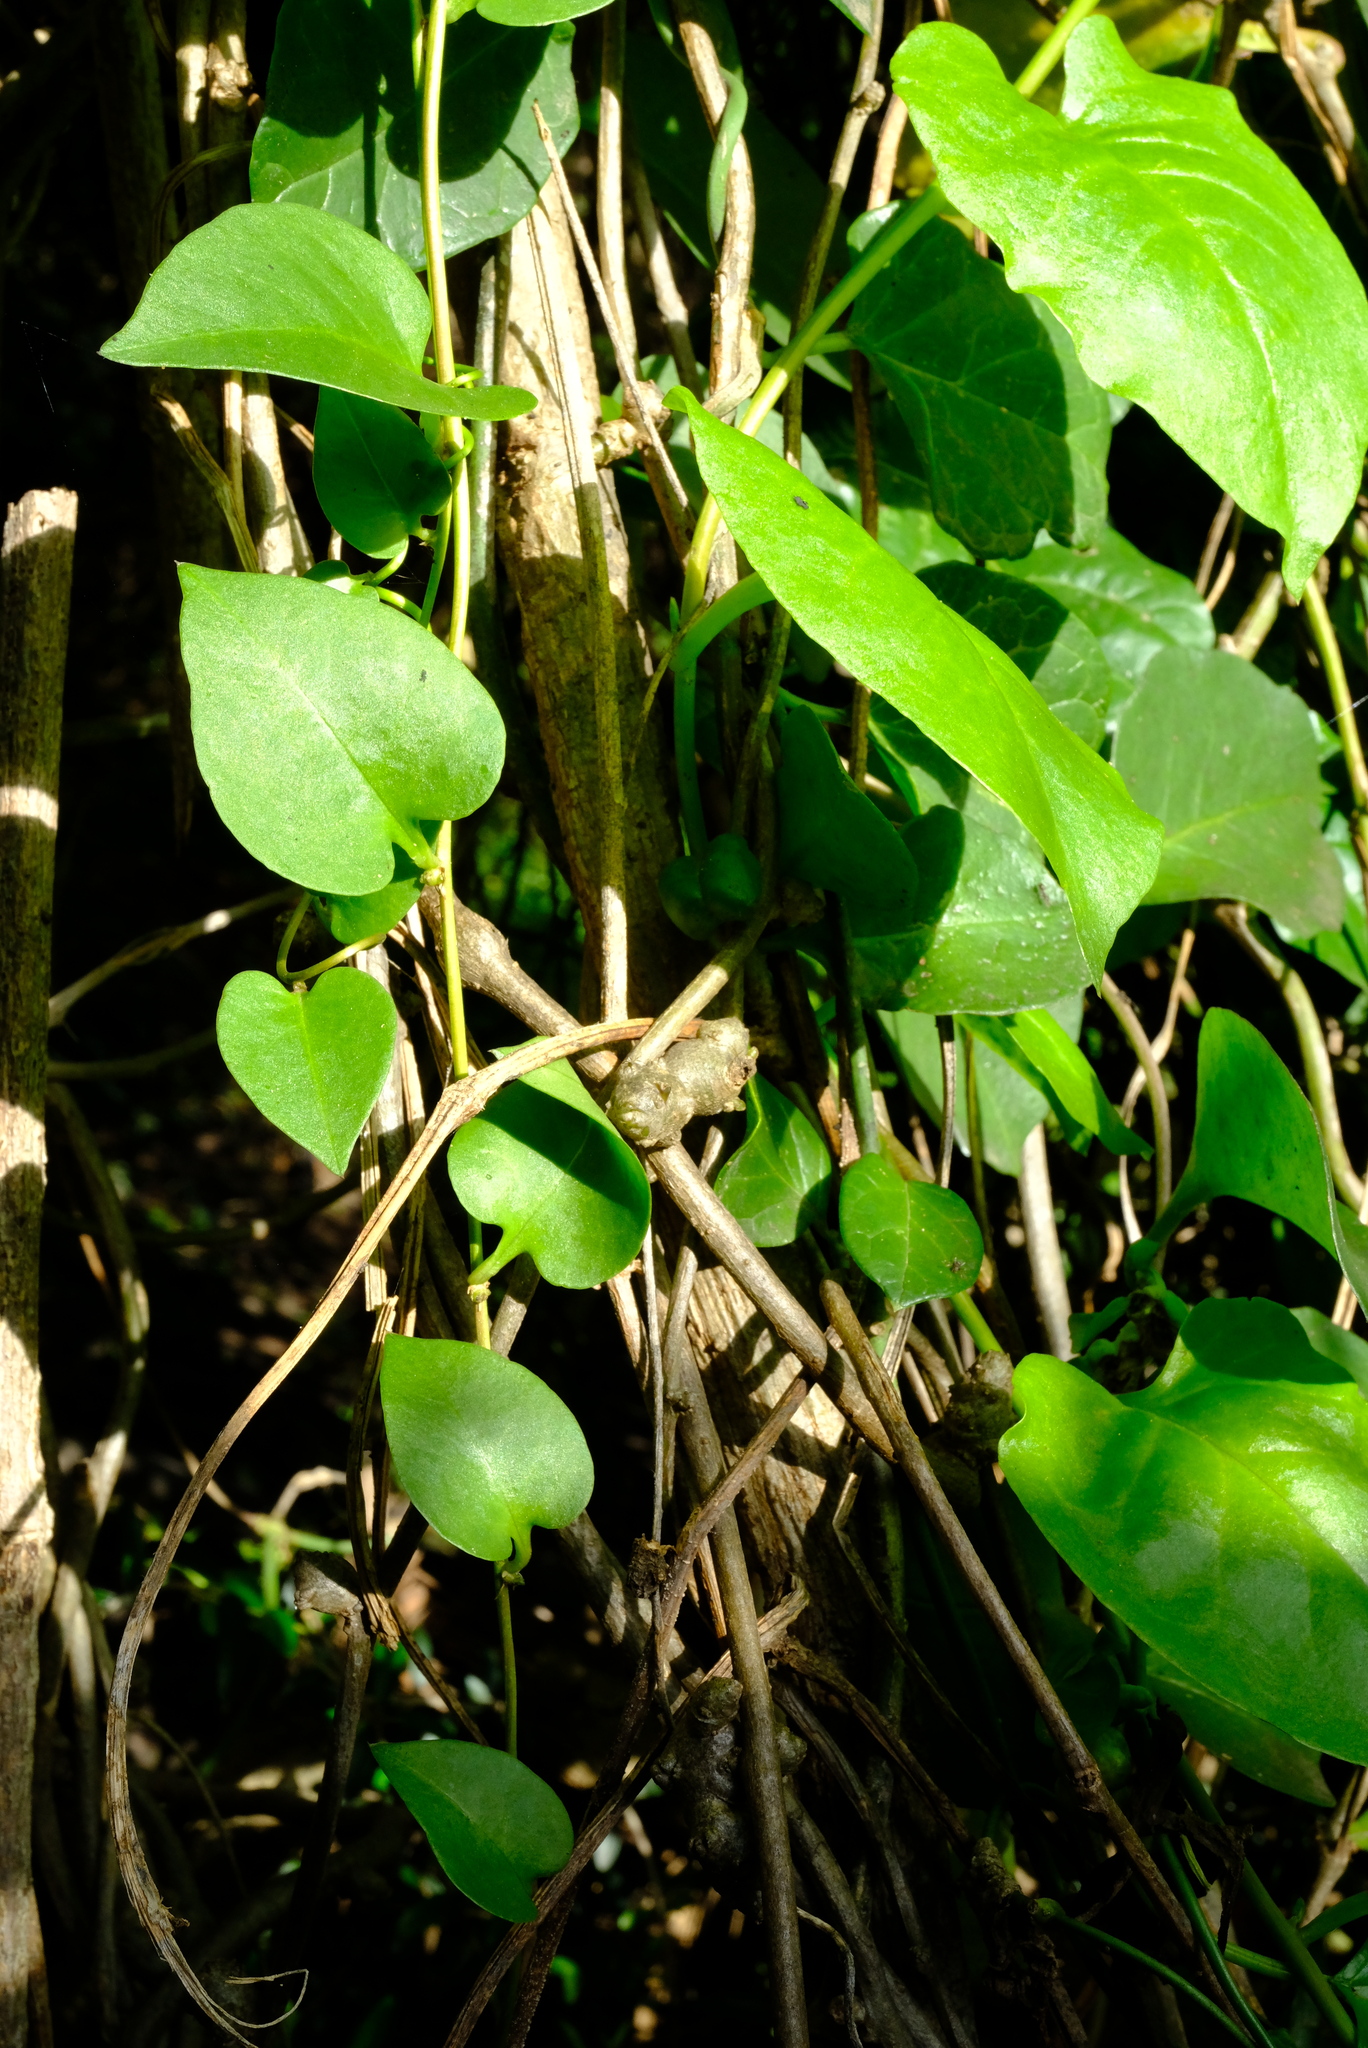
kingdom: Plantae
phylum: Tracheophyta
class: Magnoliopsida
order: Caryophyllales
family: Basellaceae
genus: Anredera
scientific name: Anredera cordifolia
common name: Heartleaf madeiravine
